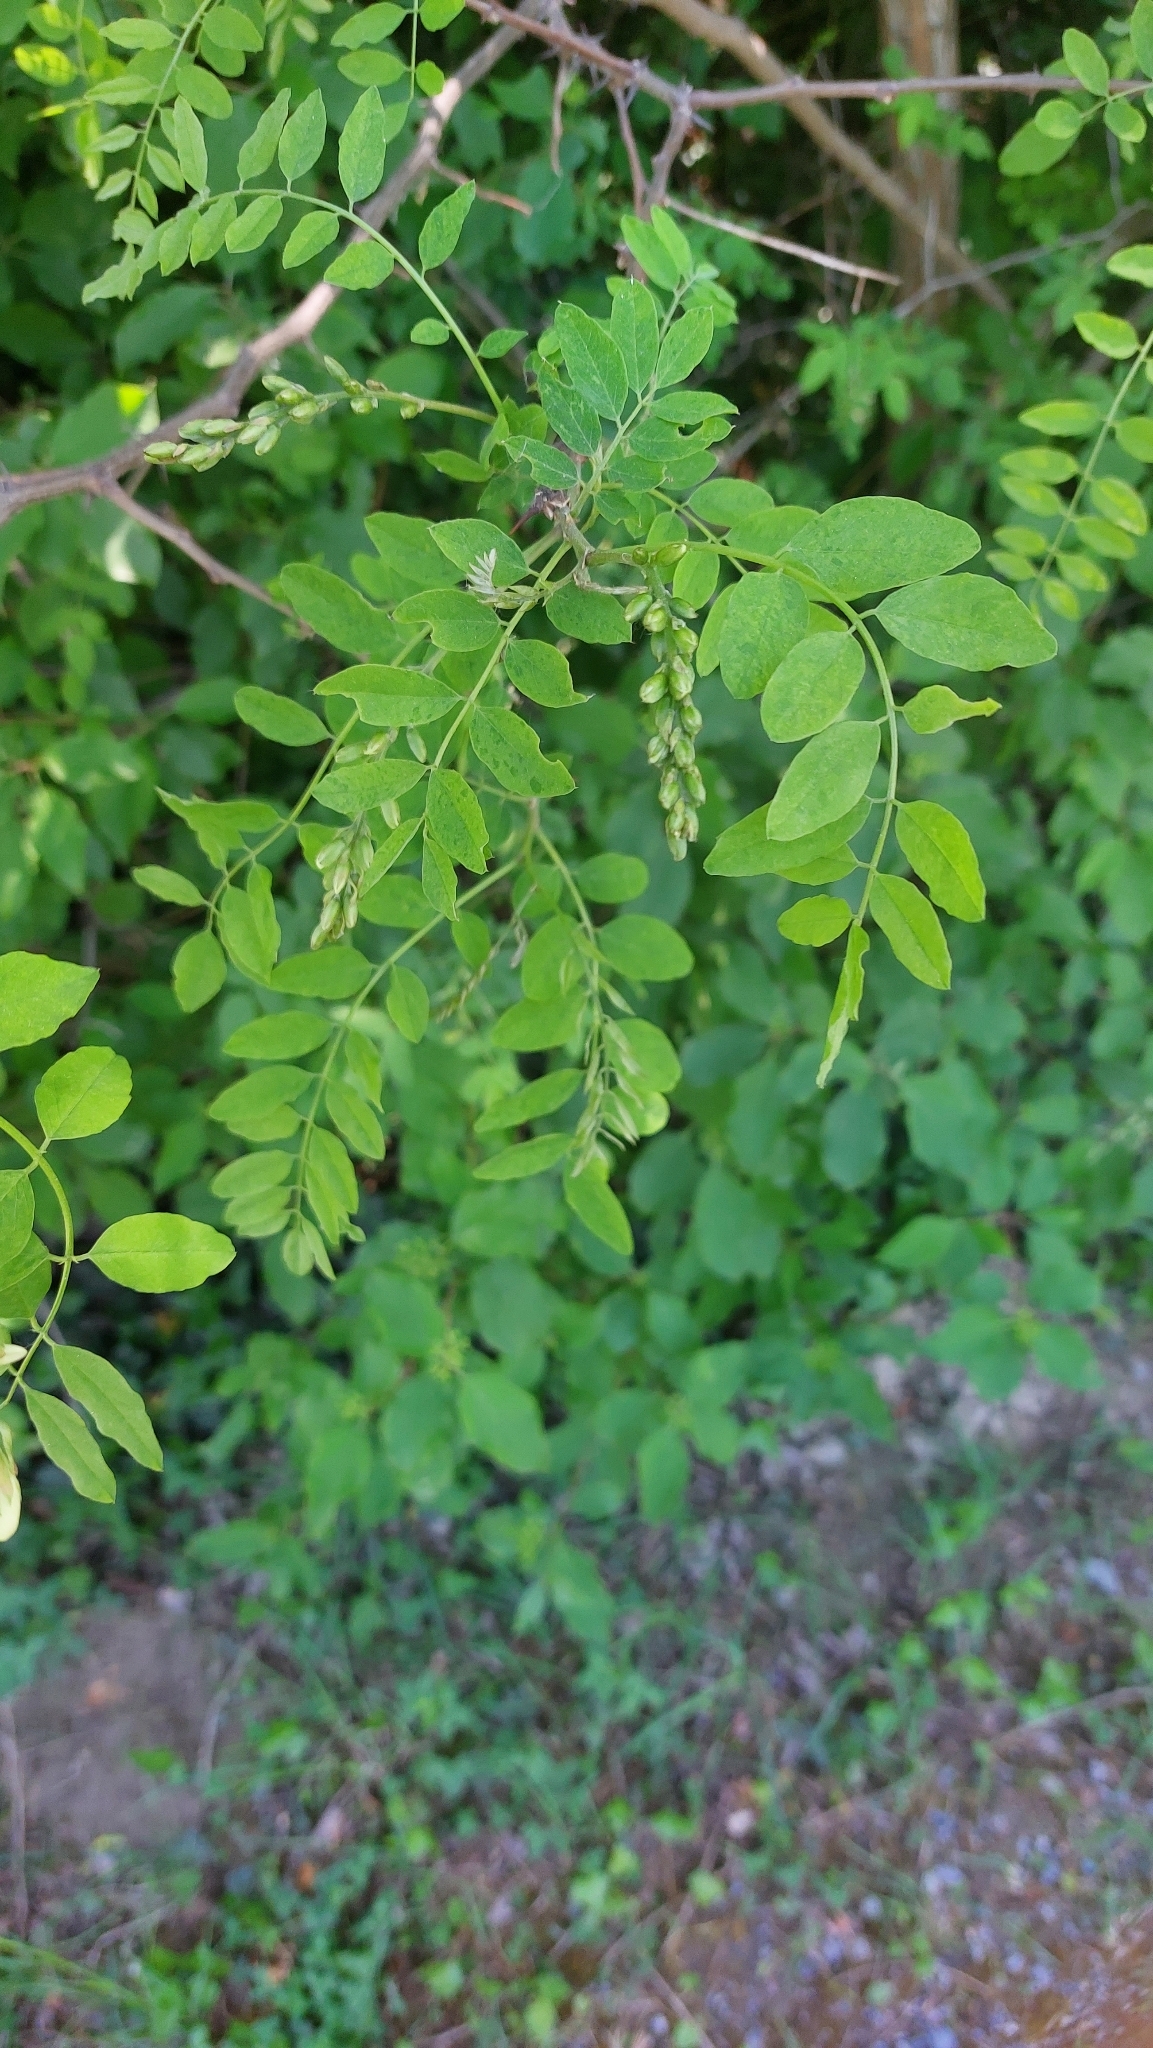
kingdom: Plantae
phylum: Tracheophyta
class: Magnoliopsida
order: Fabales
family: Fabaceae
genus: Robinia
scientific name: Robinia pseudoacacia
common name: Black locust
